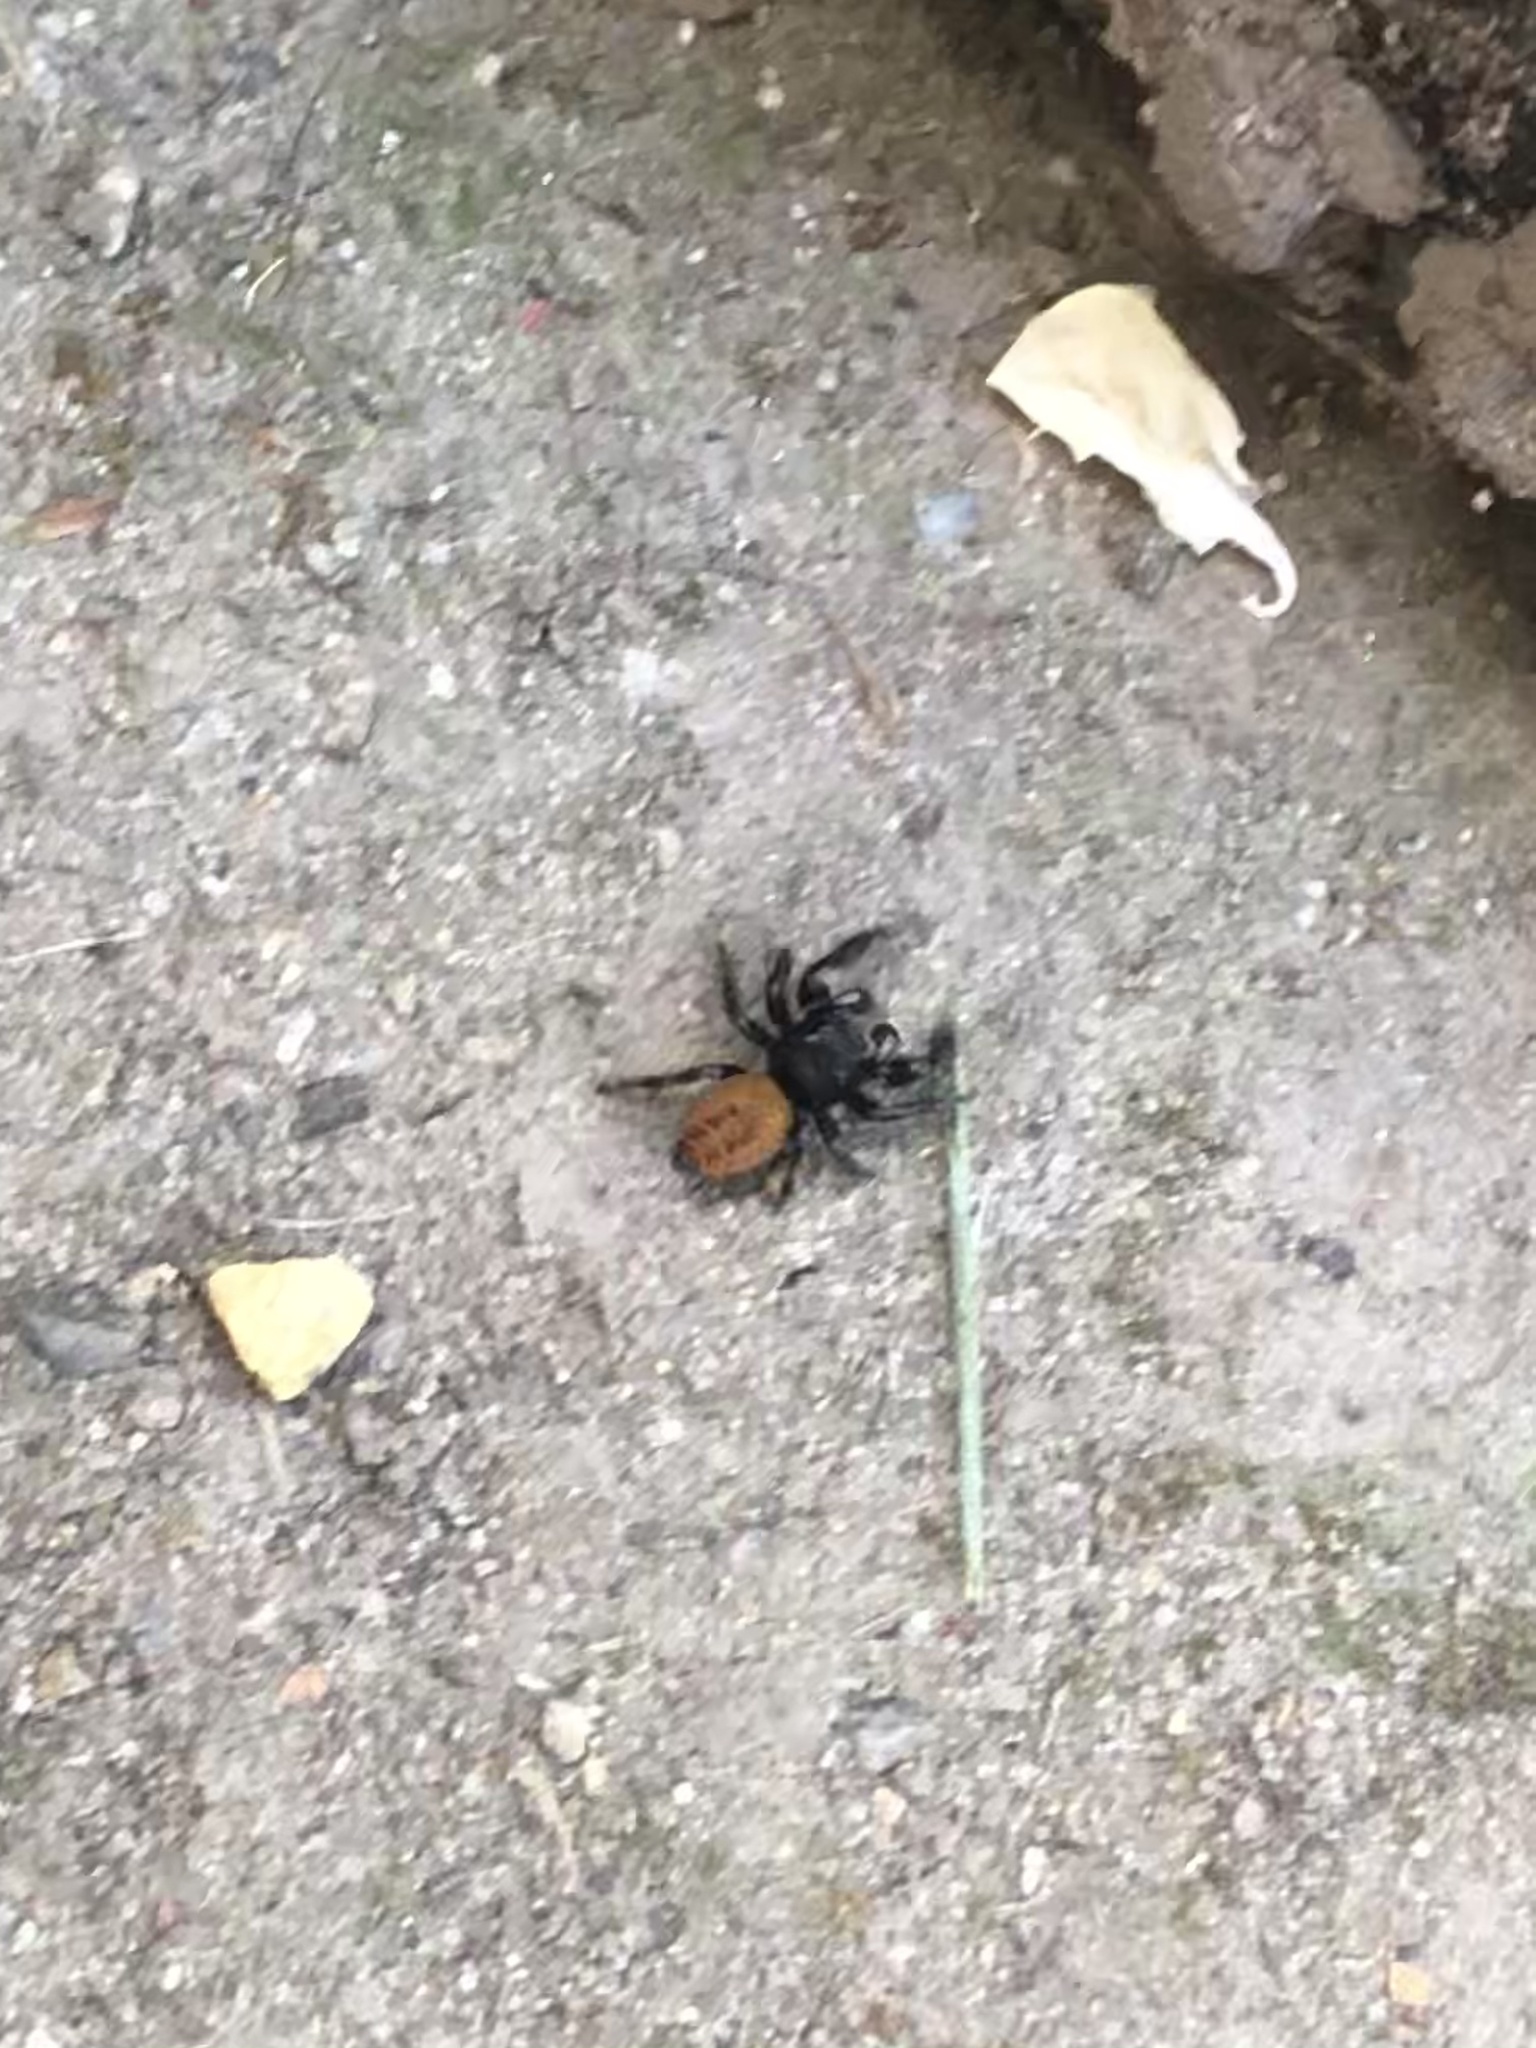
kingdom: Animalia
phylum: Arthropoda
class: Arachnida
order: Araneae
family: Salticidae
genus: Phidippus
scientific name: Phidippus johnsoni
